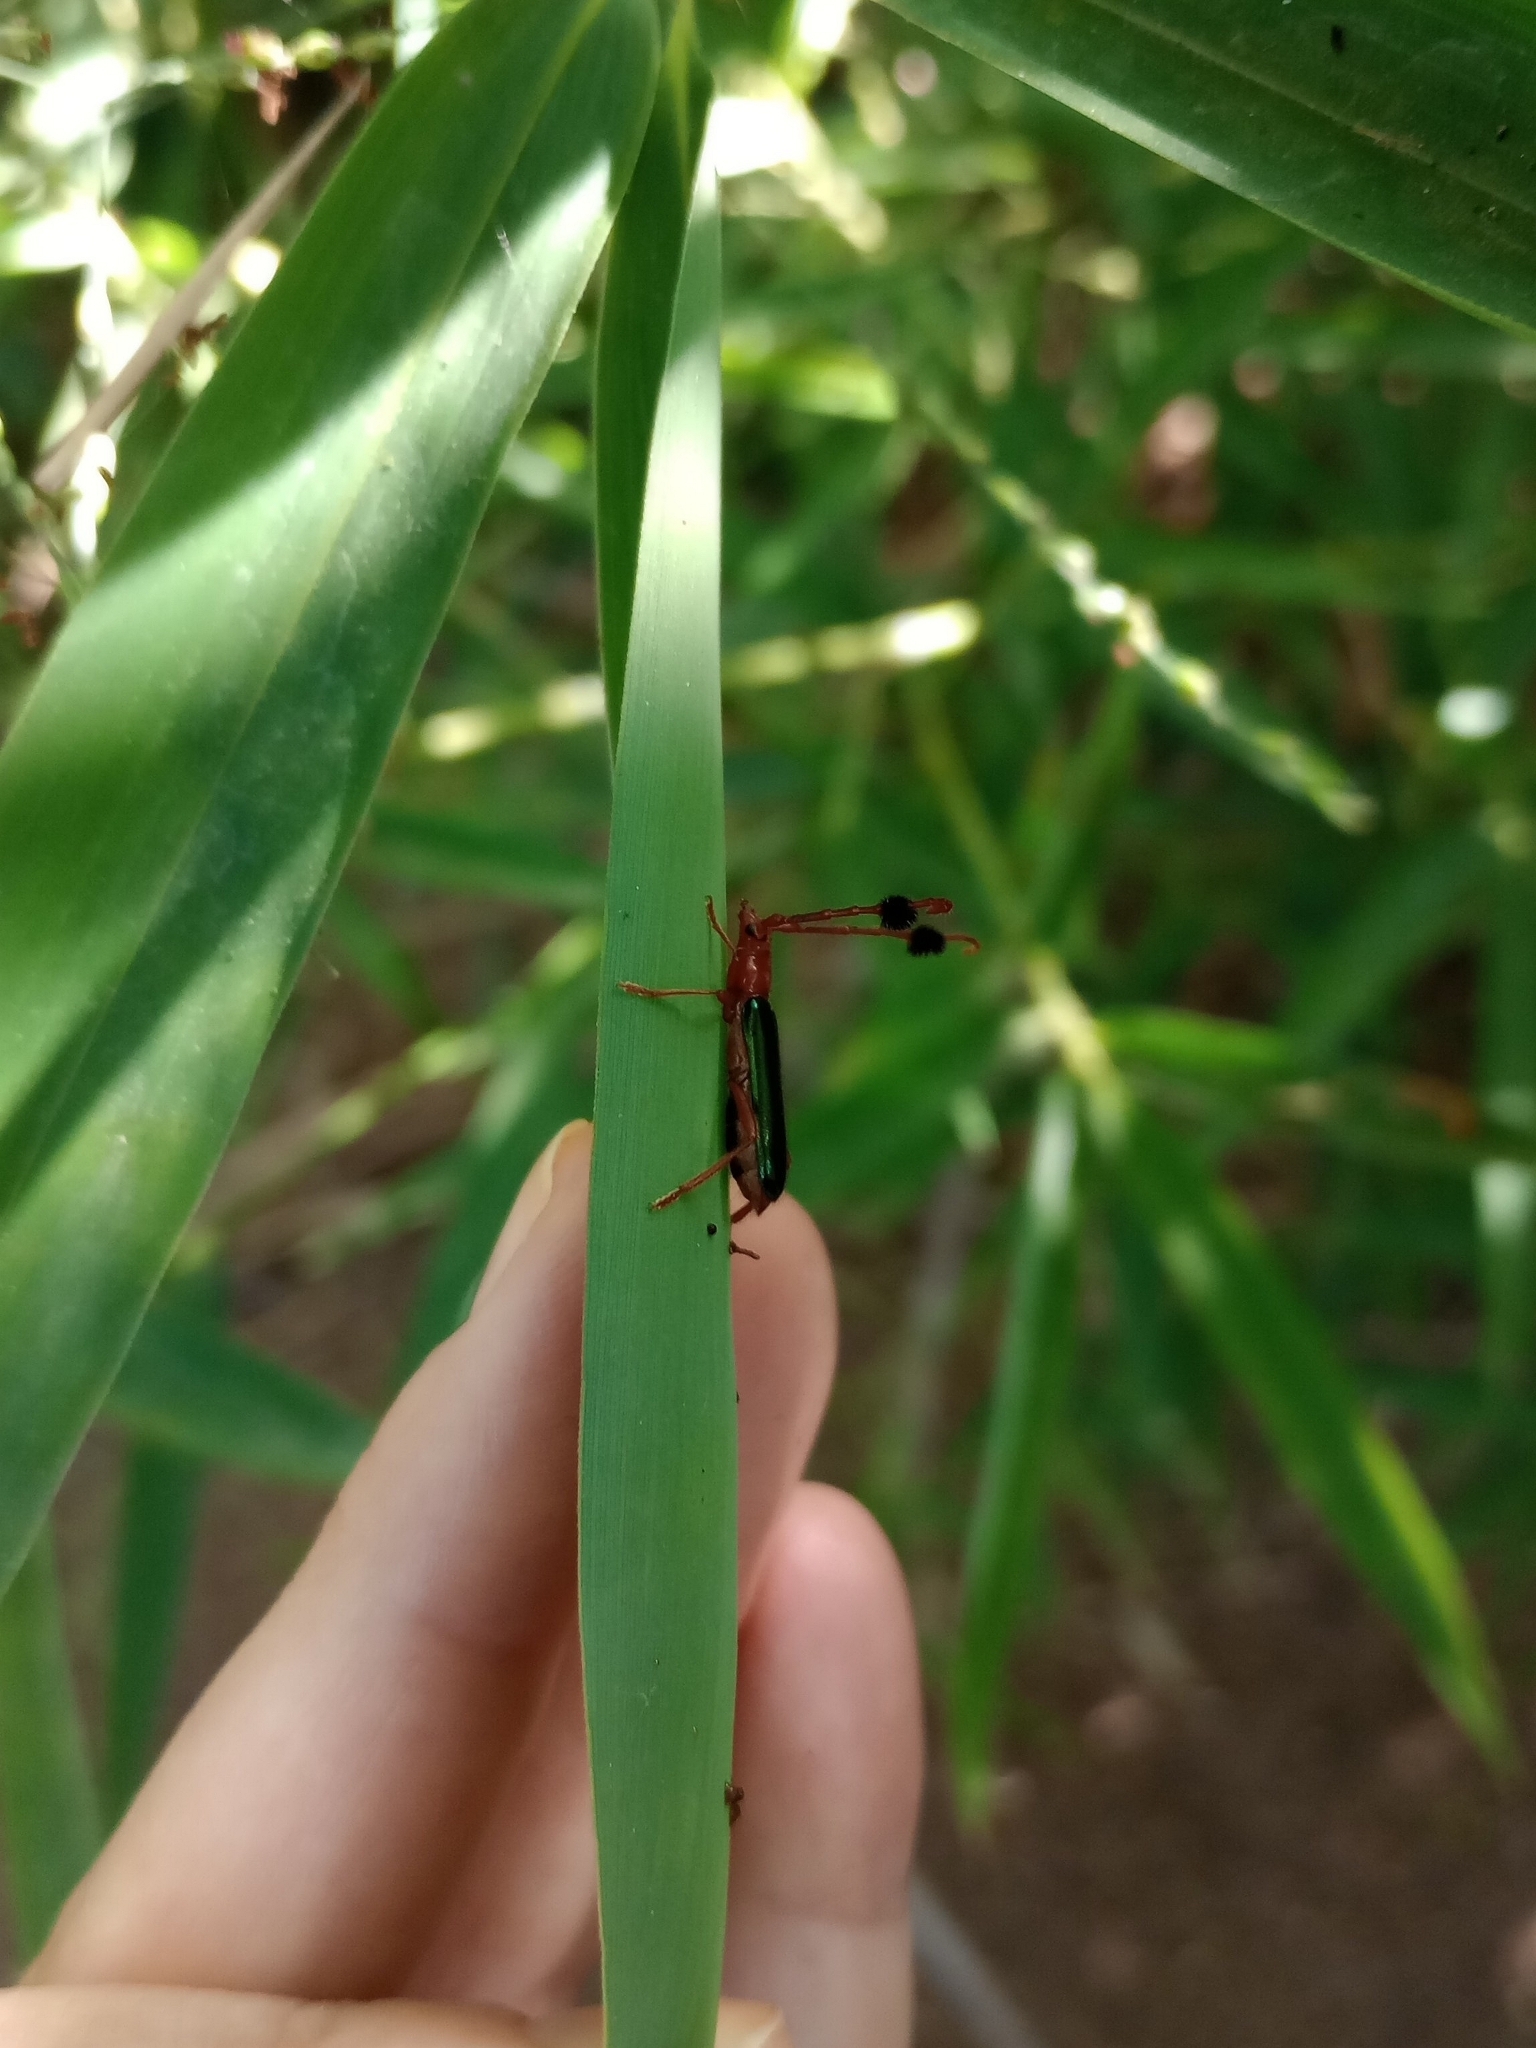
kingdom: Animalia
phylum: Arthropoda
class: Insecta
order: Coleoptera
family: Cerambycidae
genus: Compsocerus
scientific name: Compsocerus violaceus
